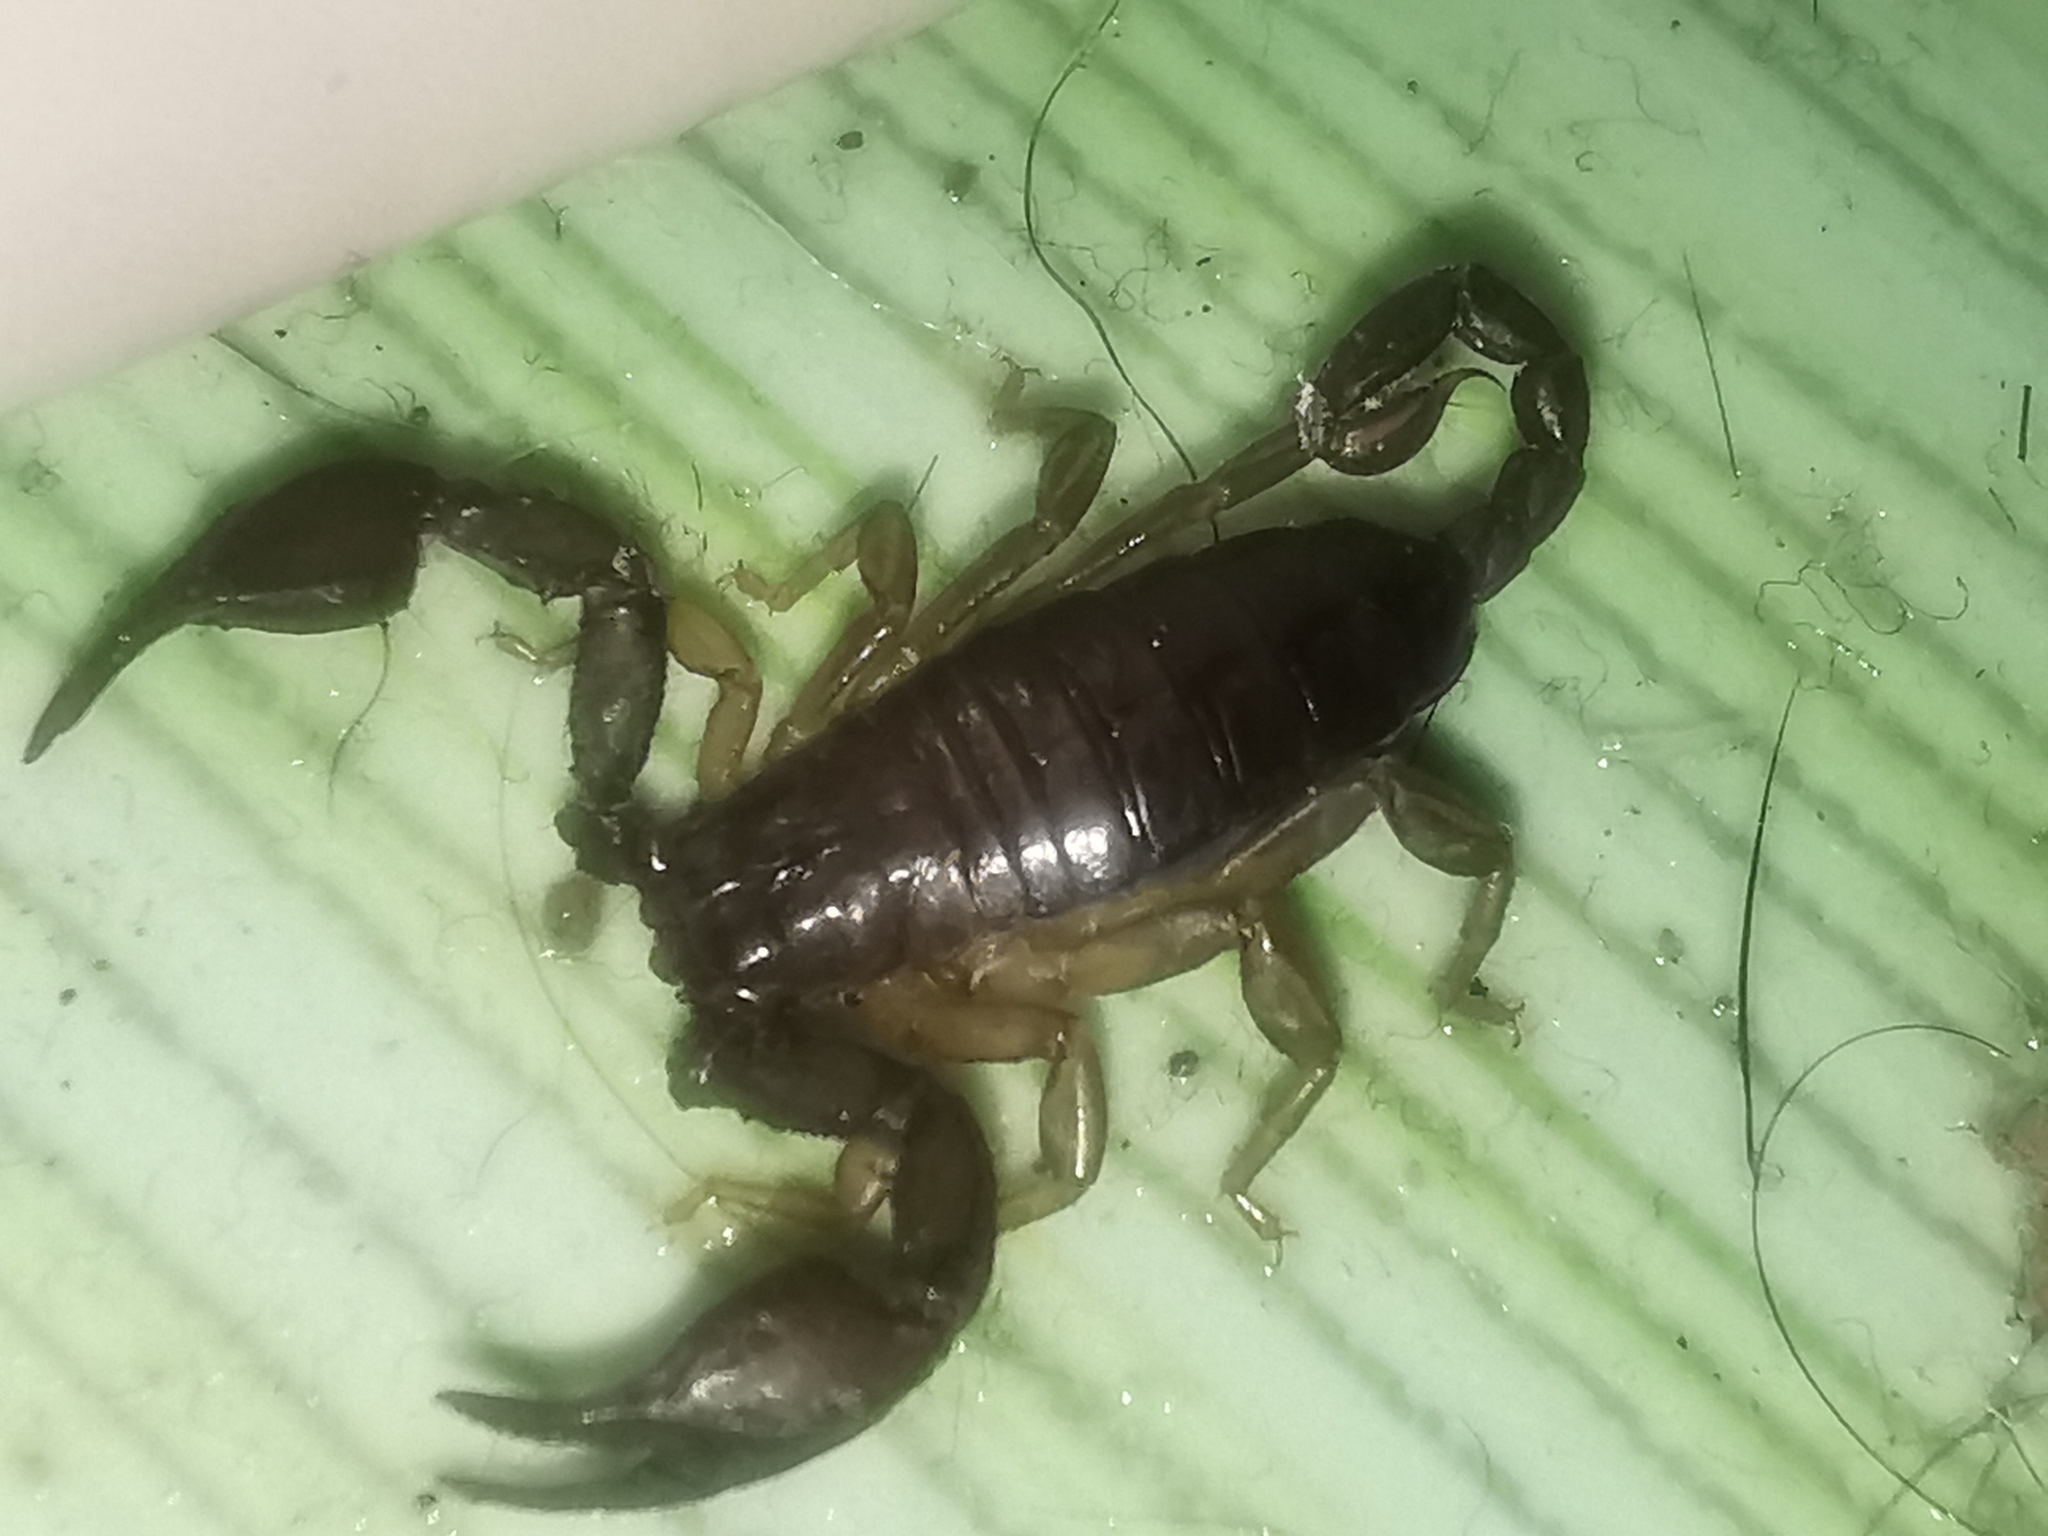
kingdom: Animalia
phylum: Arthropoda
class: Arachnida
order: Scorpiones
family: Euscorpiidae
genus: Euscorpius
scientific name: Euscorpius
